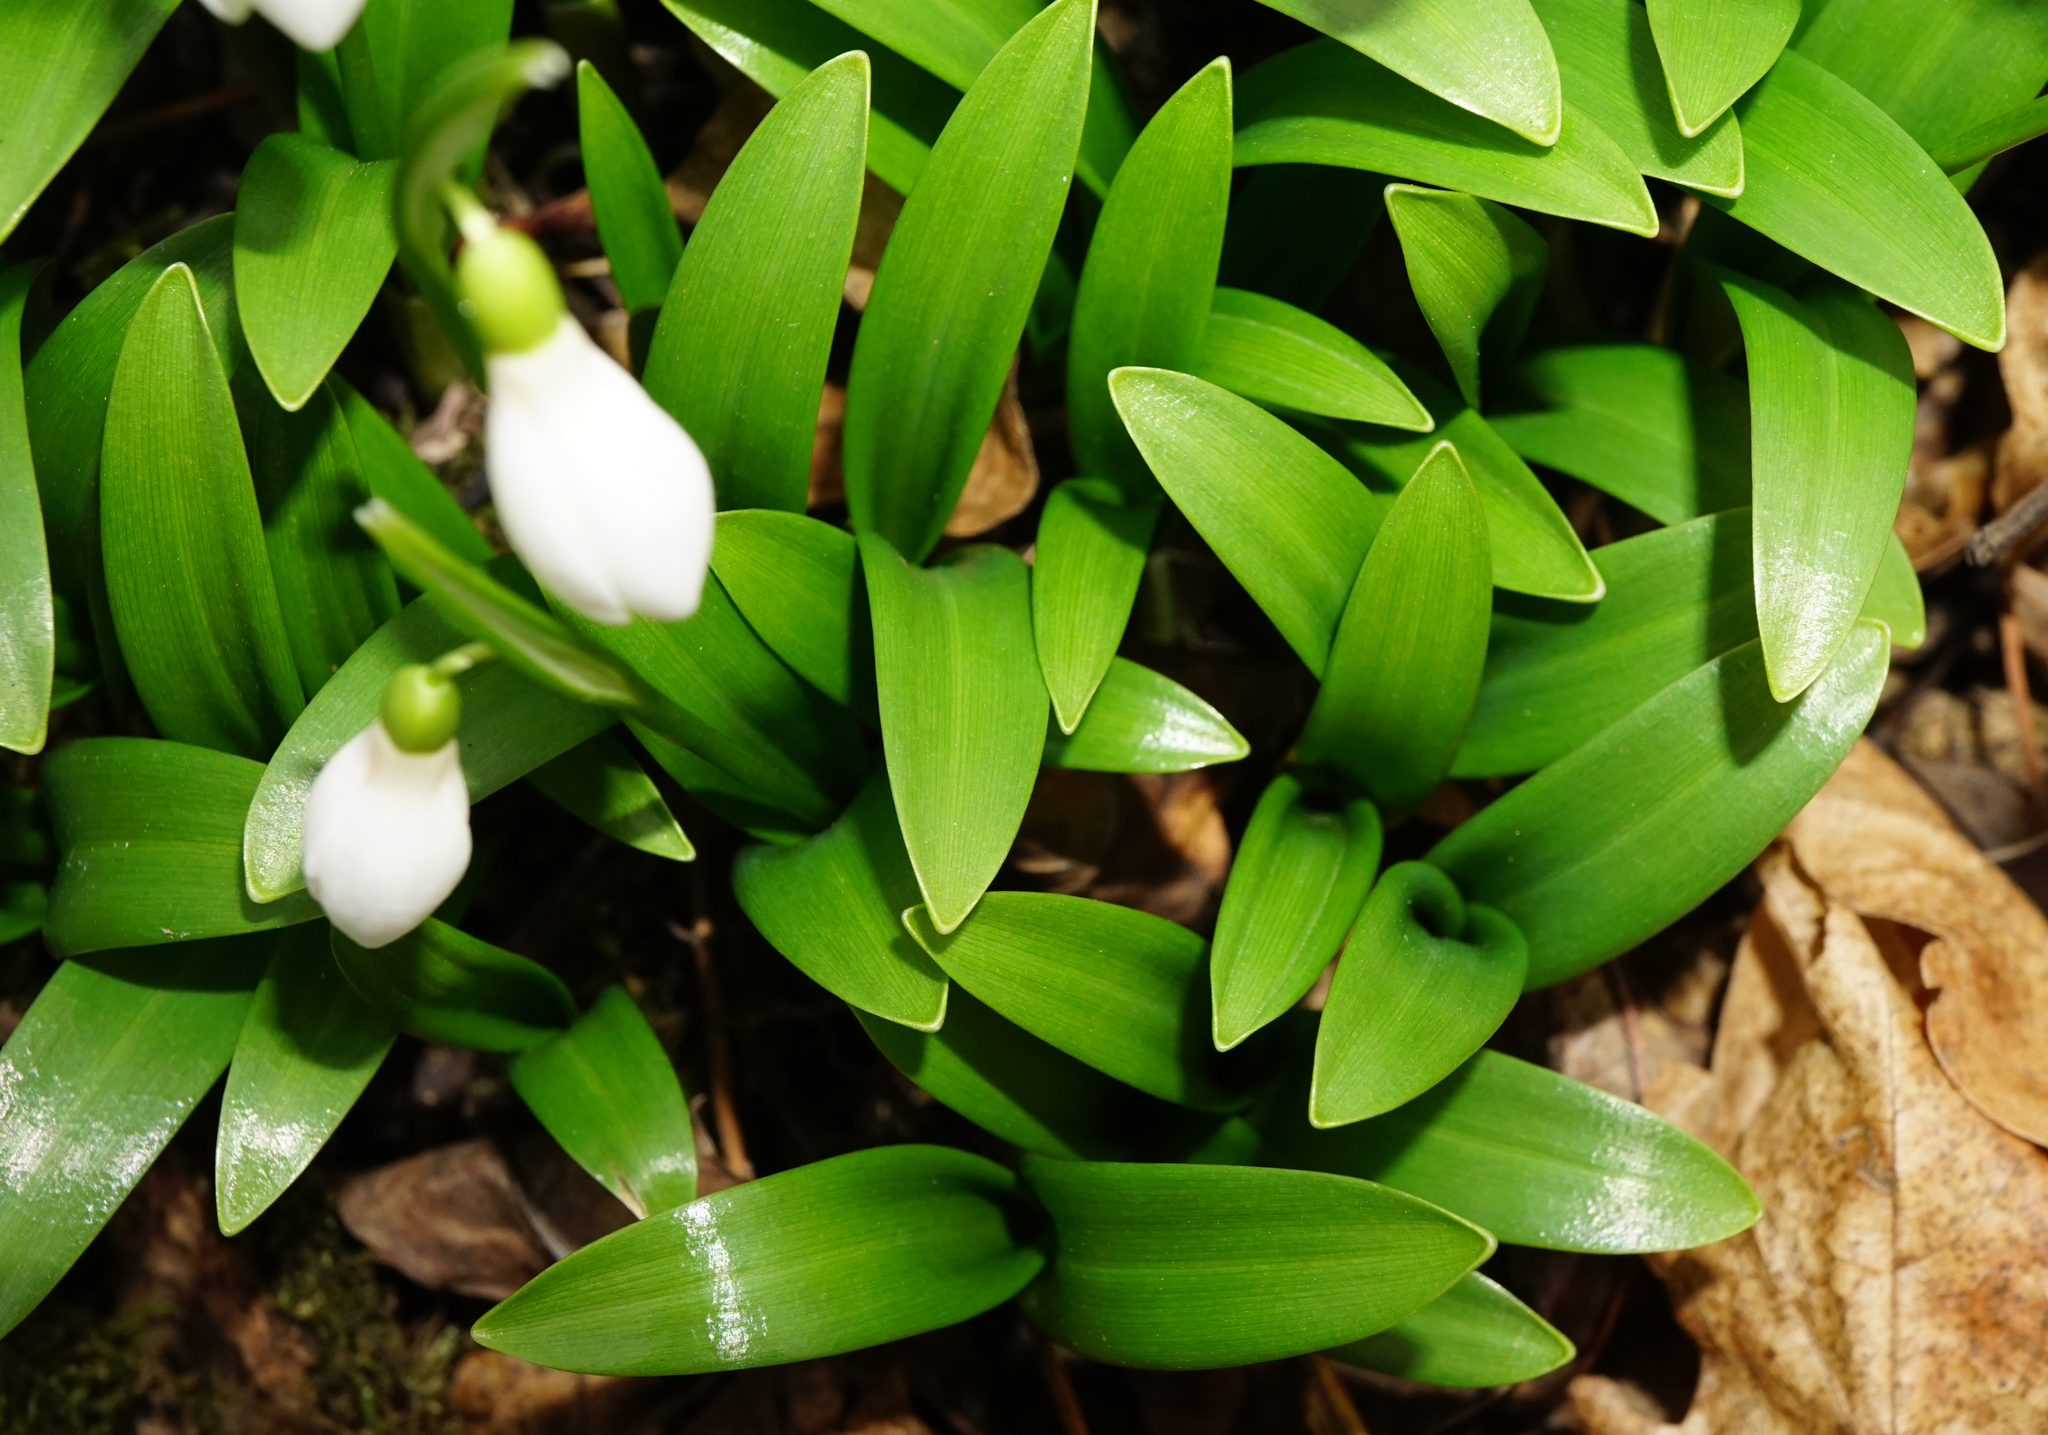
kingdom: Plantae
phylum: Tracheophyta
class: Liliopsida
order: Asparagales
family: Amaryllidaceae
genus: Galanthus
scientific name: Galanthus woronowii
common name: Green snowdrop
